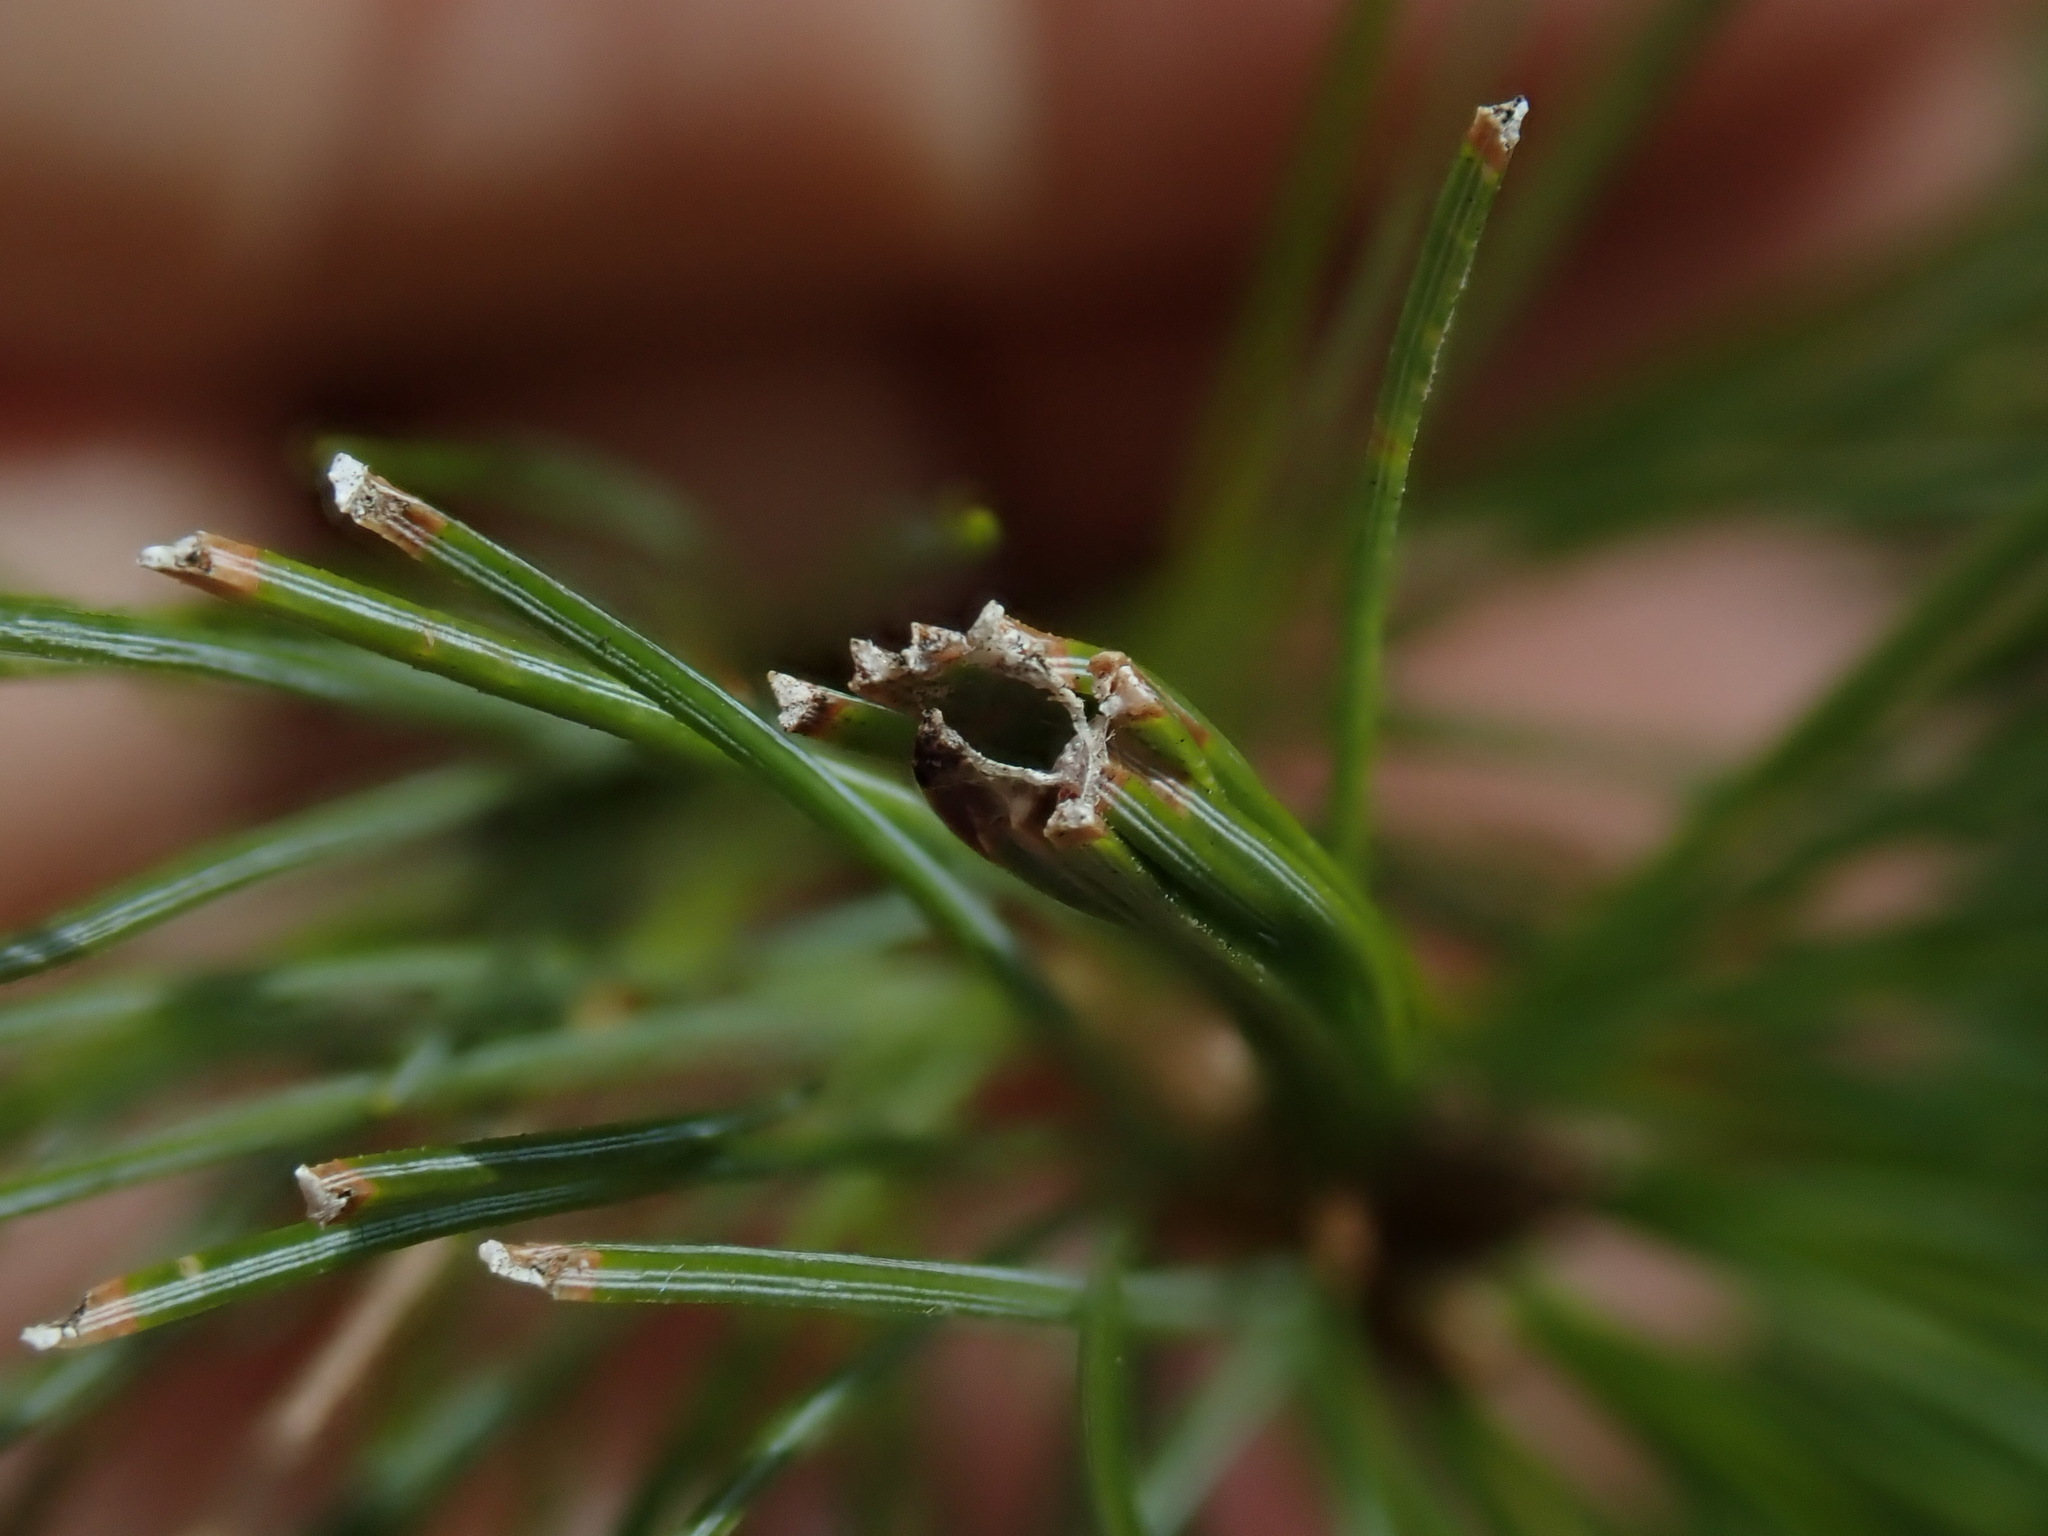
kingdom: Animalia
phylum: Arthropoda
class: Insecta
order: Lepidoptera
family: Tortricidae
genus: Argyrotaenia
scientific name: Argyrotaenia pinatubana
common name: Pine tube moth
